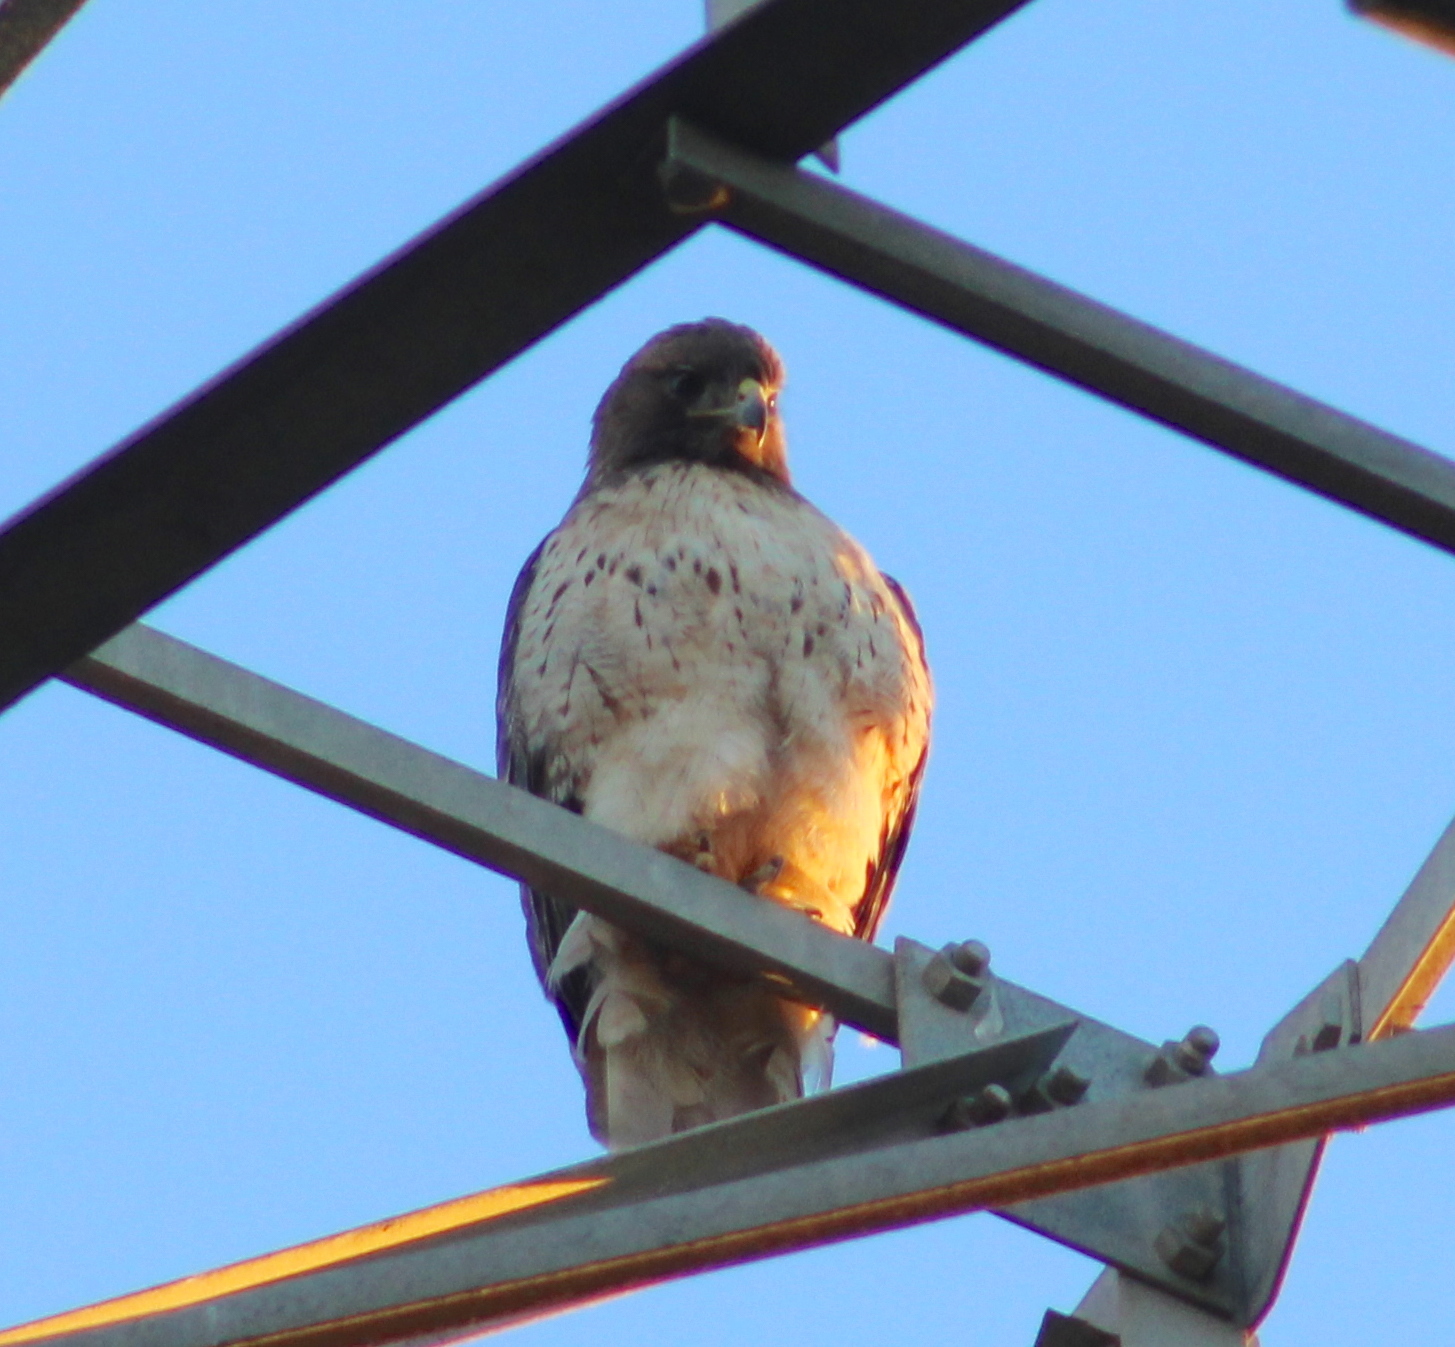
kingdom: Animalia
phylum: Chordata
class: Aves
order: Accipitriformes
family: Accipitridae
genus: Buteo
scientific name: Buteo jamaicensis
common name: Red-tailed hawk
